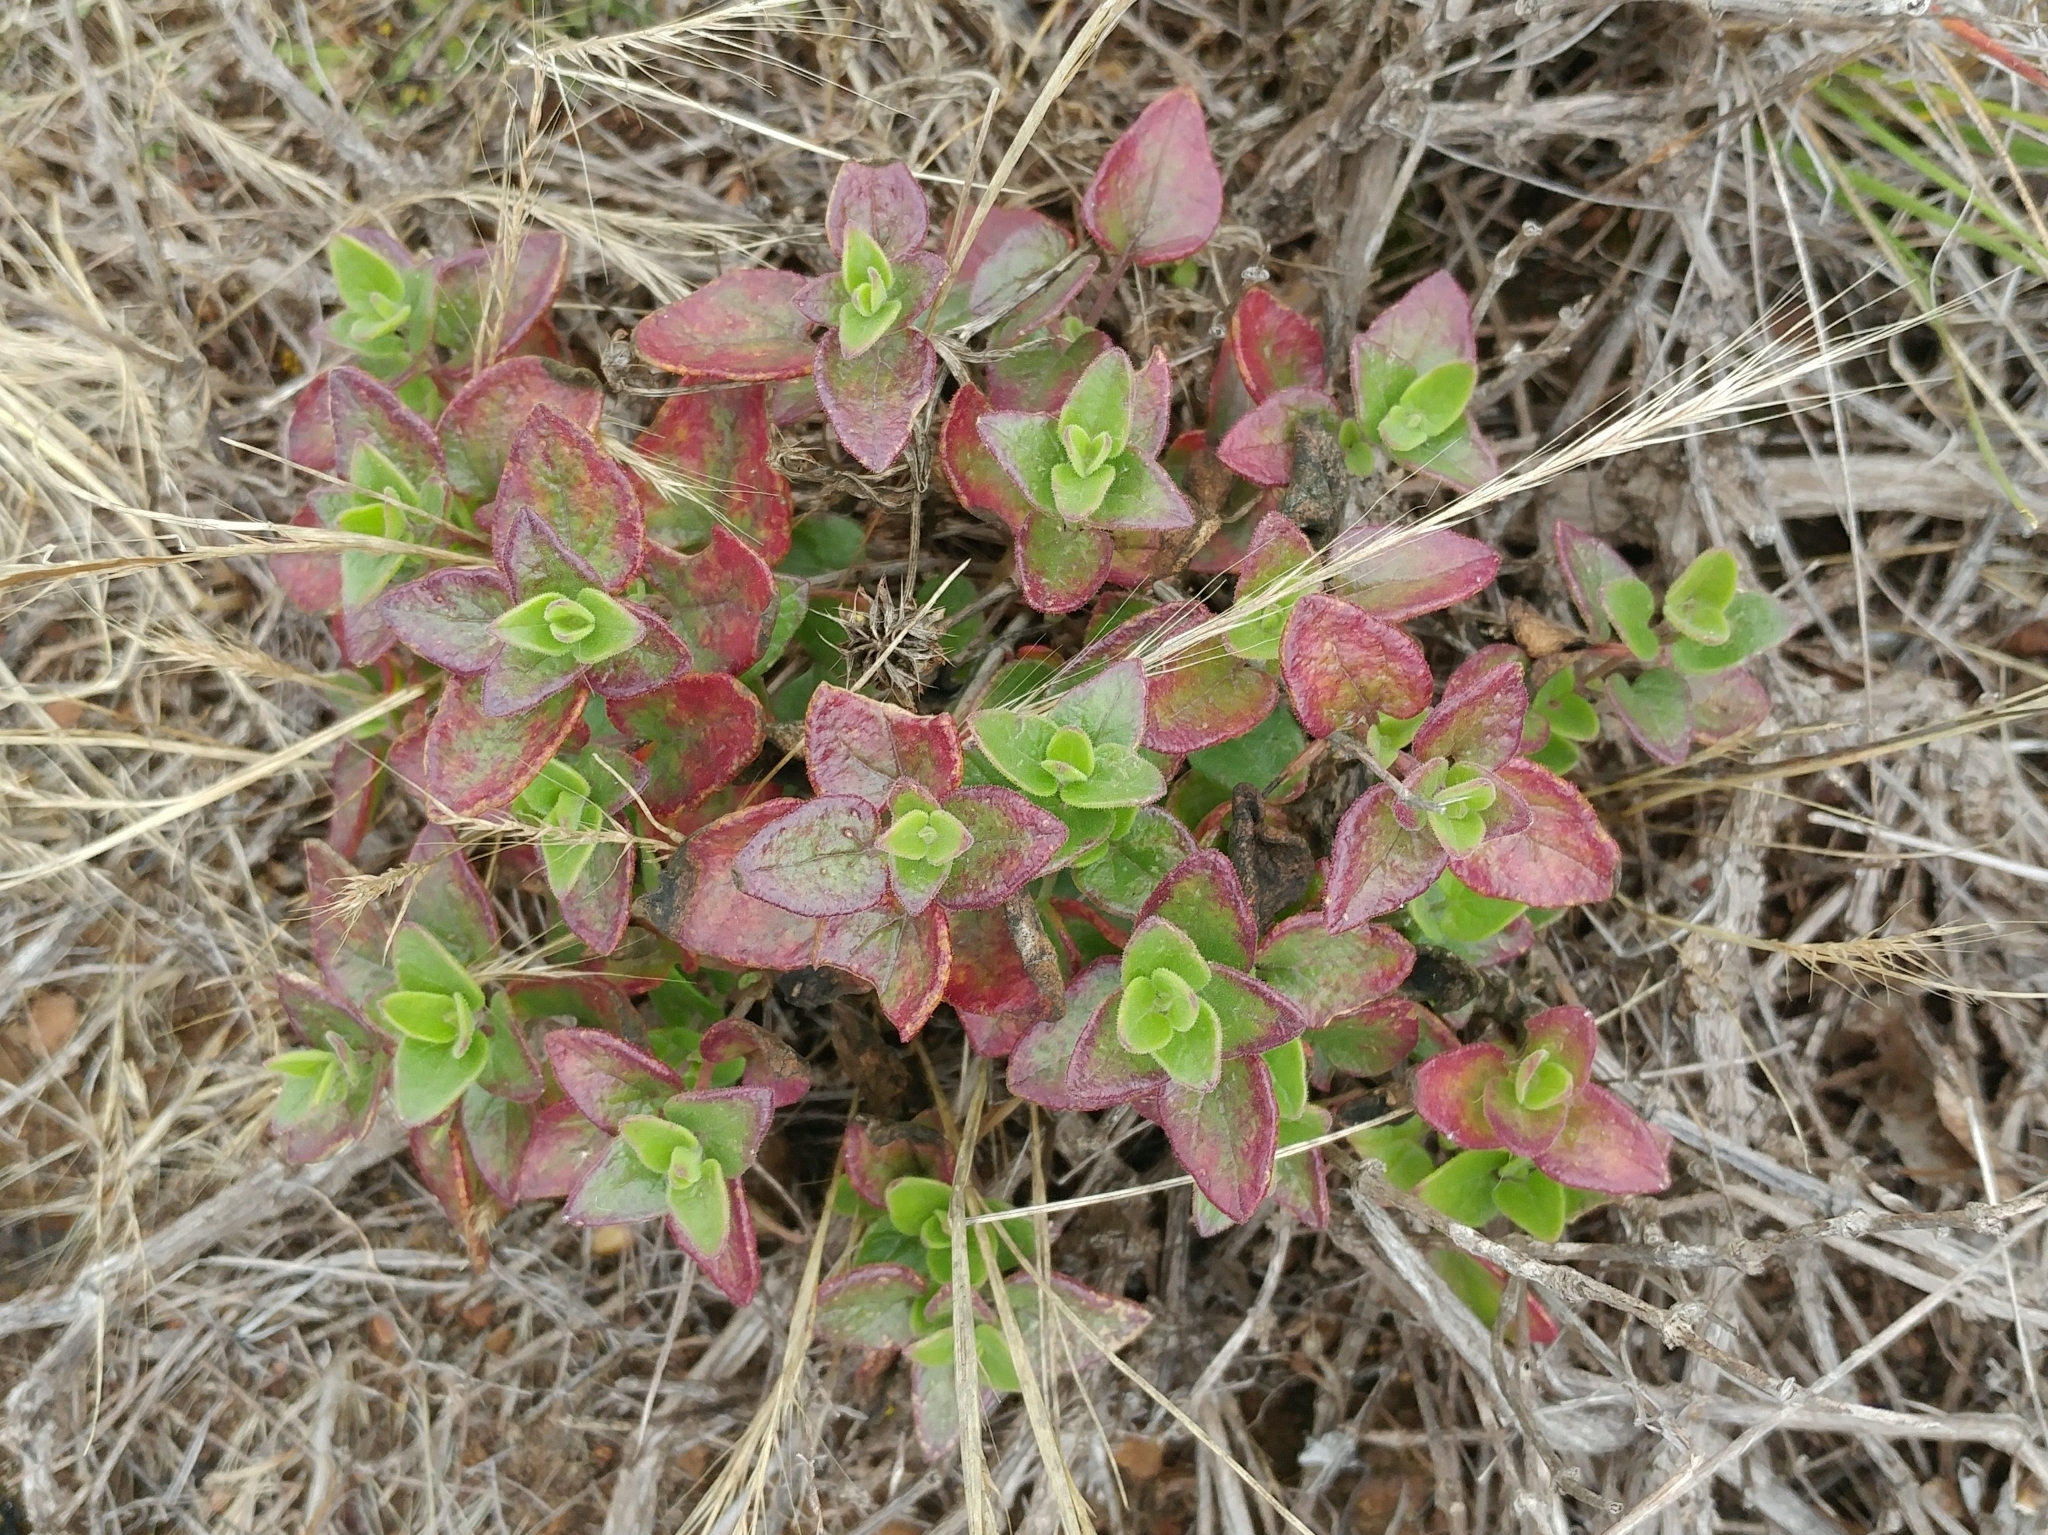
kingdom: Plantae
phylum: Tracheophyta
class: Magnoliopsida
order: Caryophyllales
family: Nyctaginaceae
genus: Mirabilis
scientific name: Mirabilis laevis
